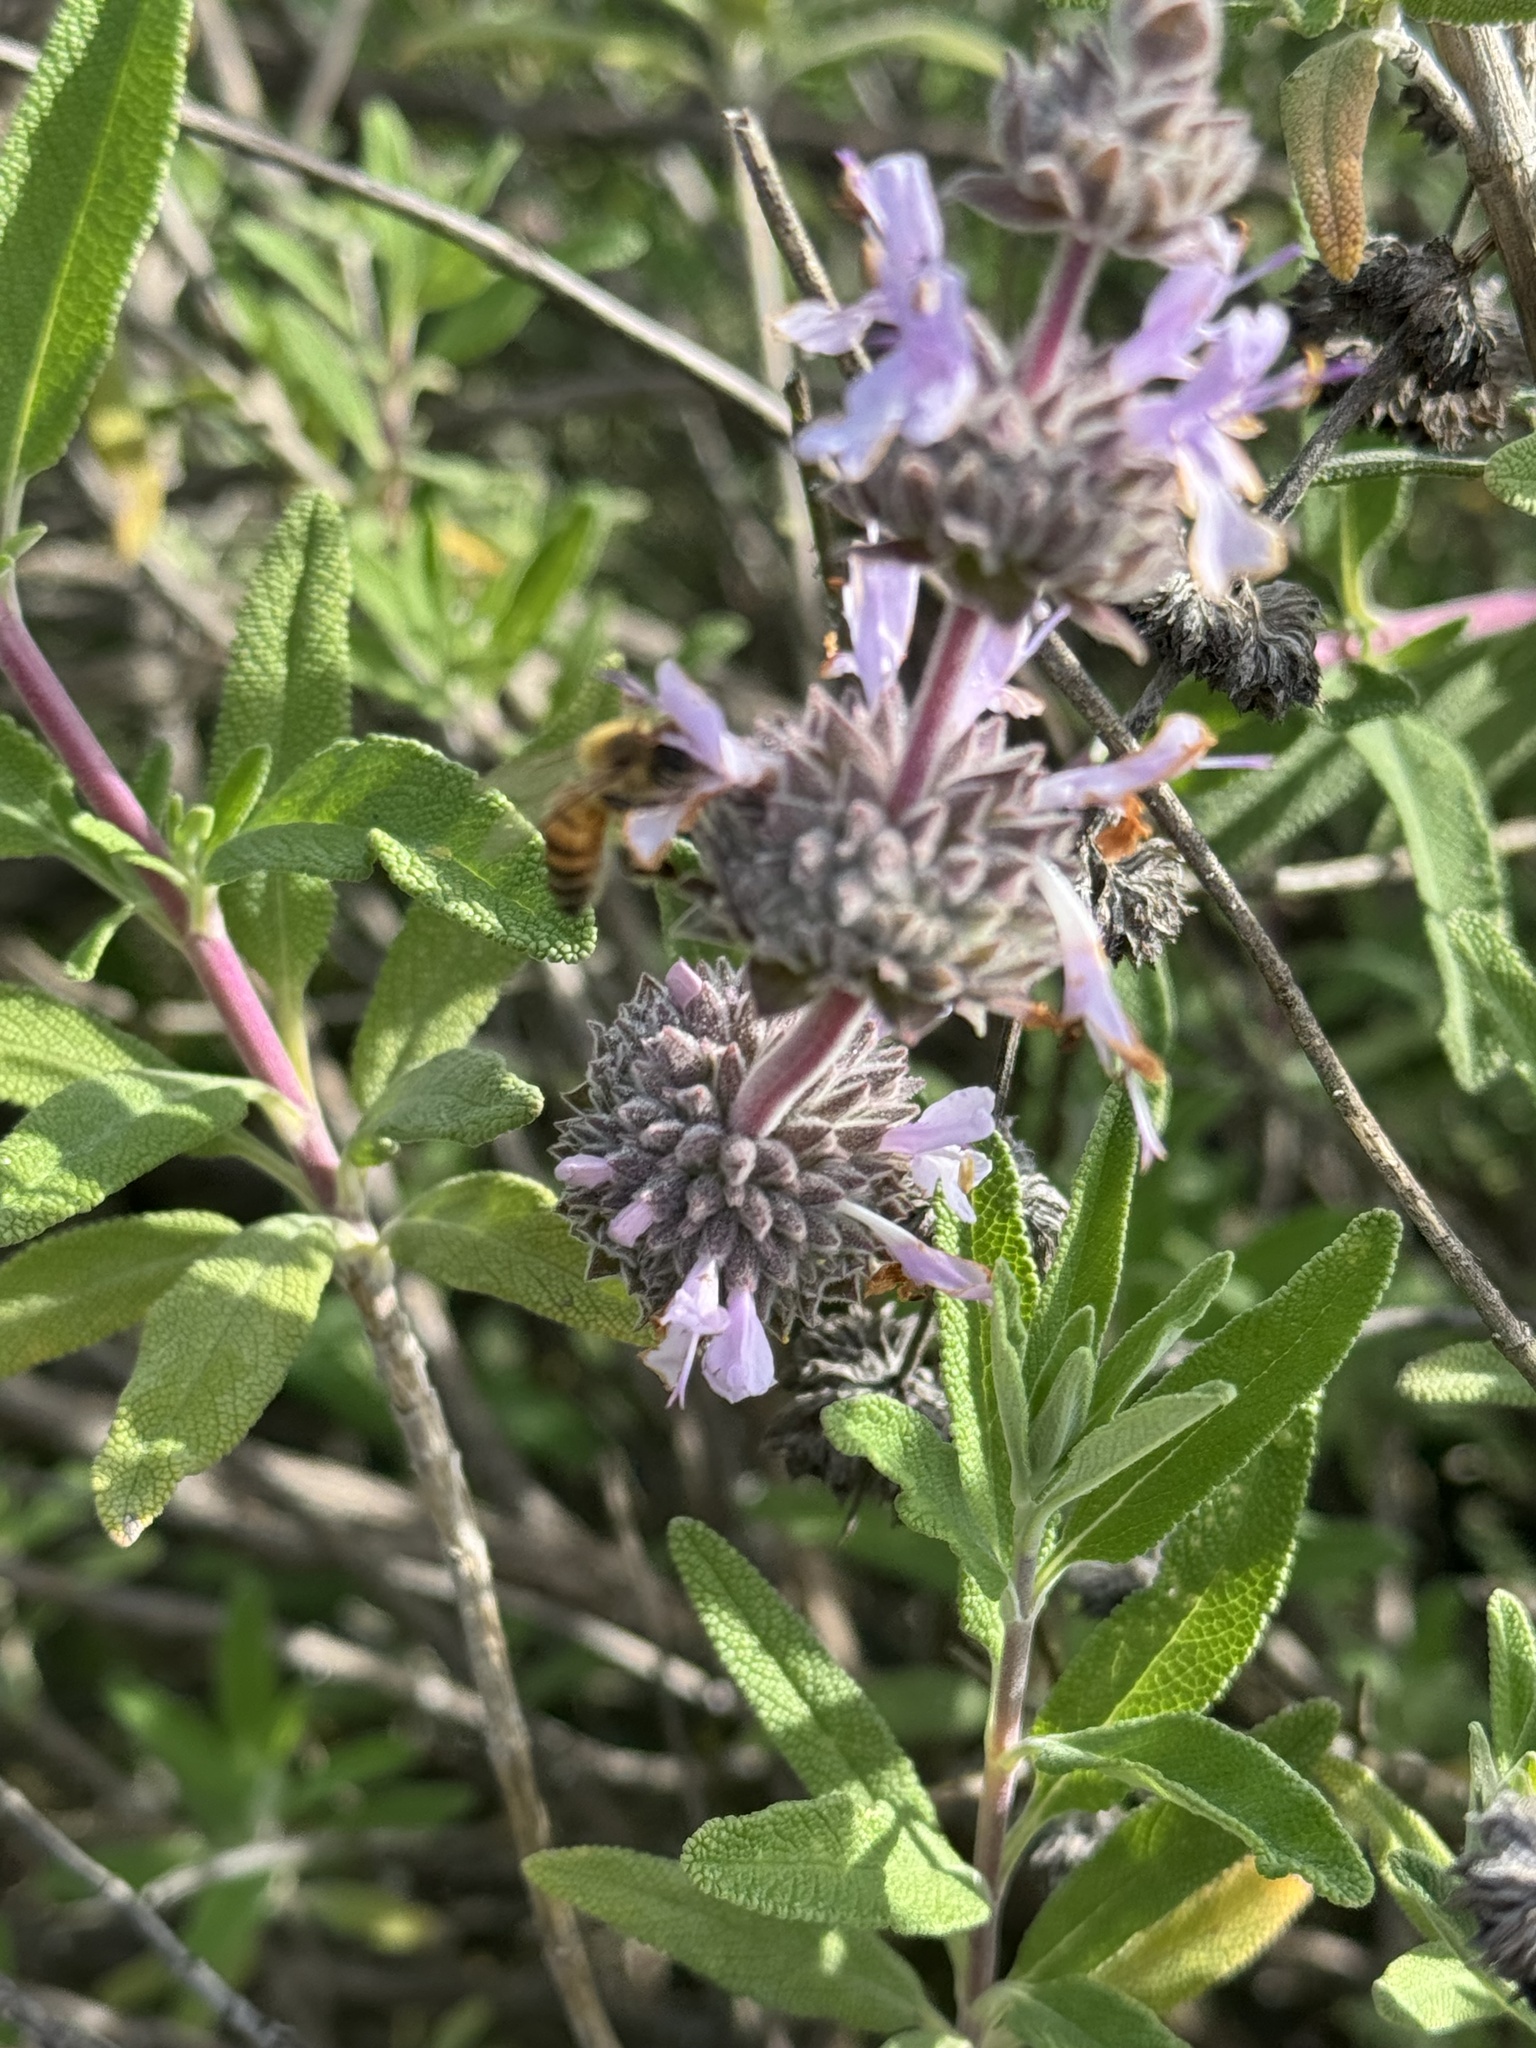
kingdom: Animalia
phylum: Arthropoda
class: Insecta
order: Hymenoptera
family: Apidae
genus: Apis
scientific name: Apis mellifera
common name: Honey bee
